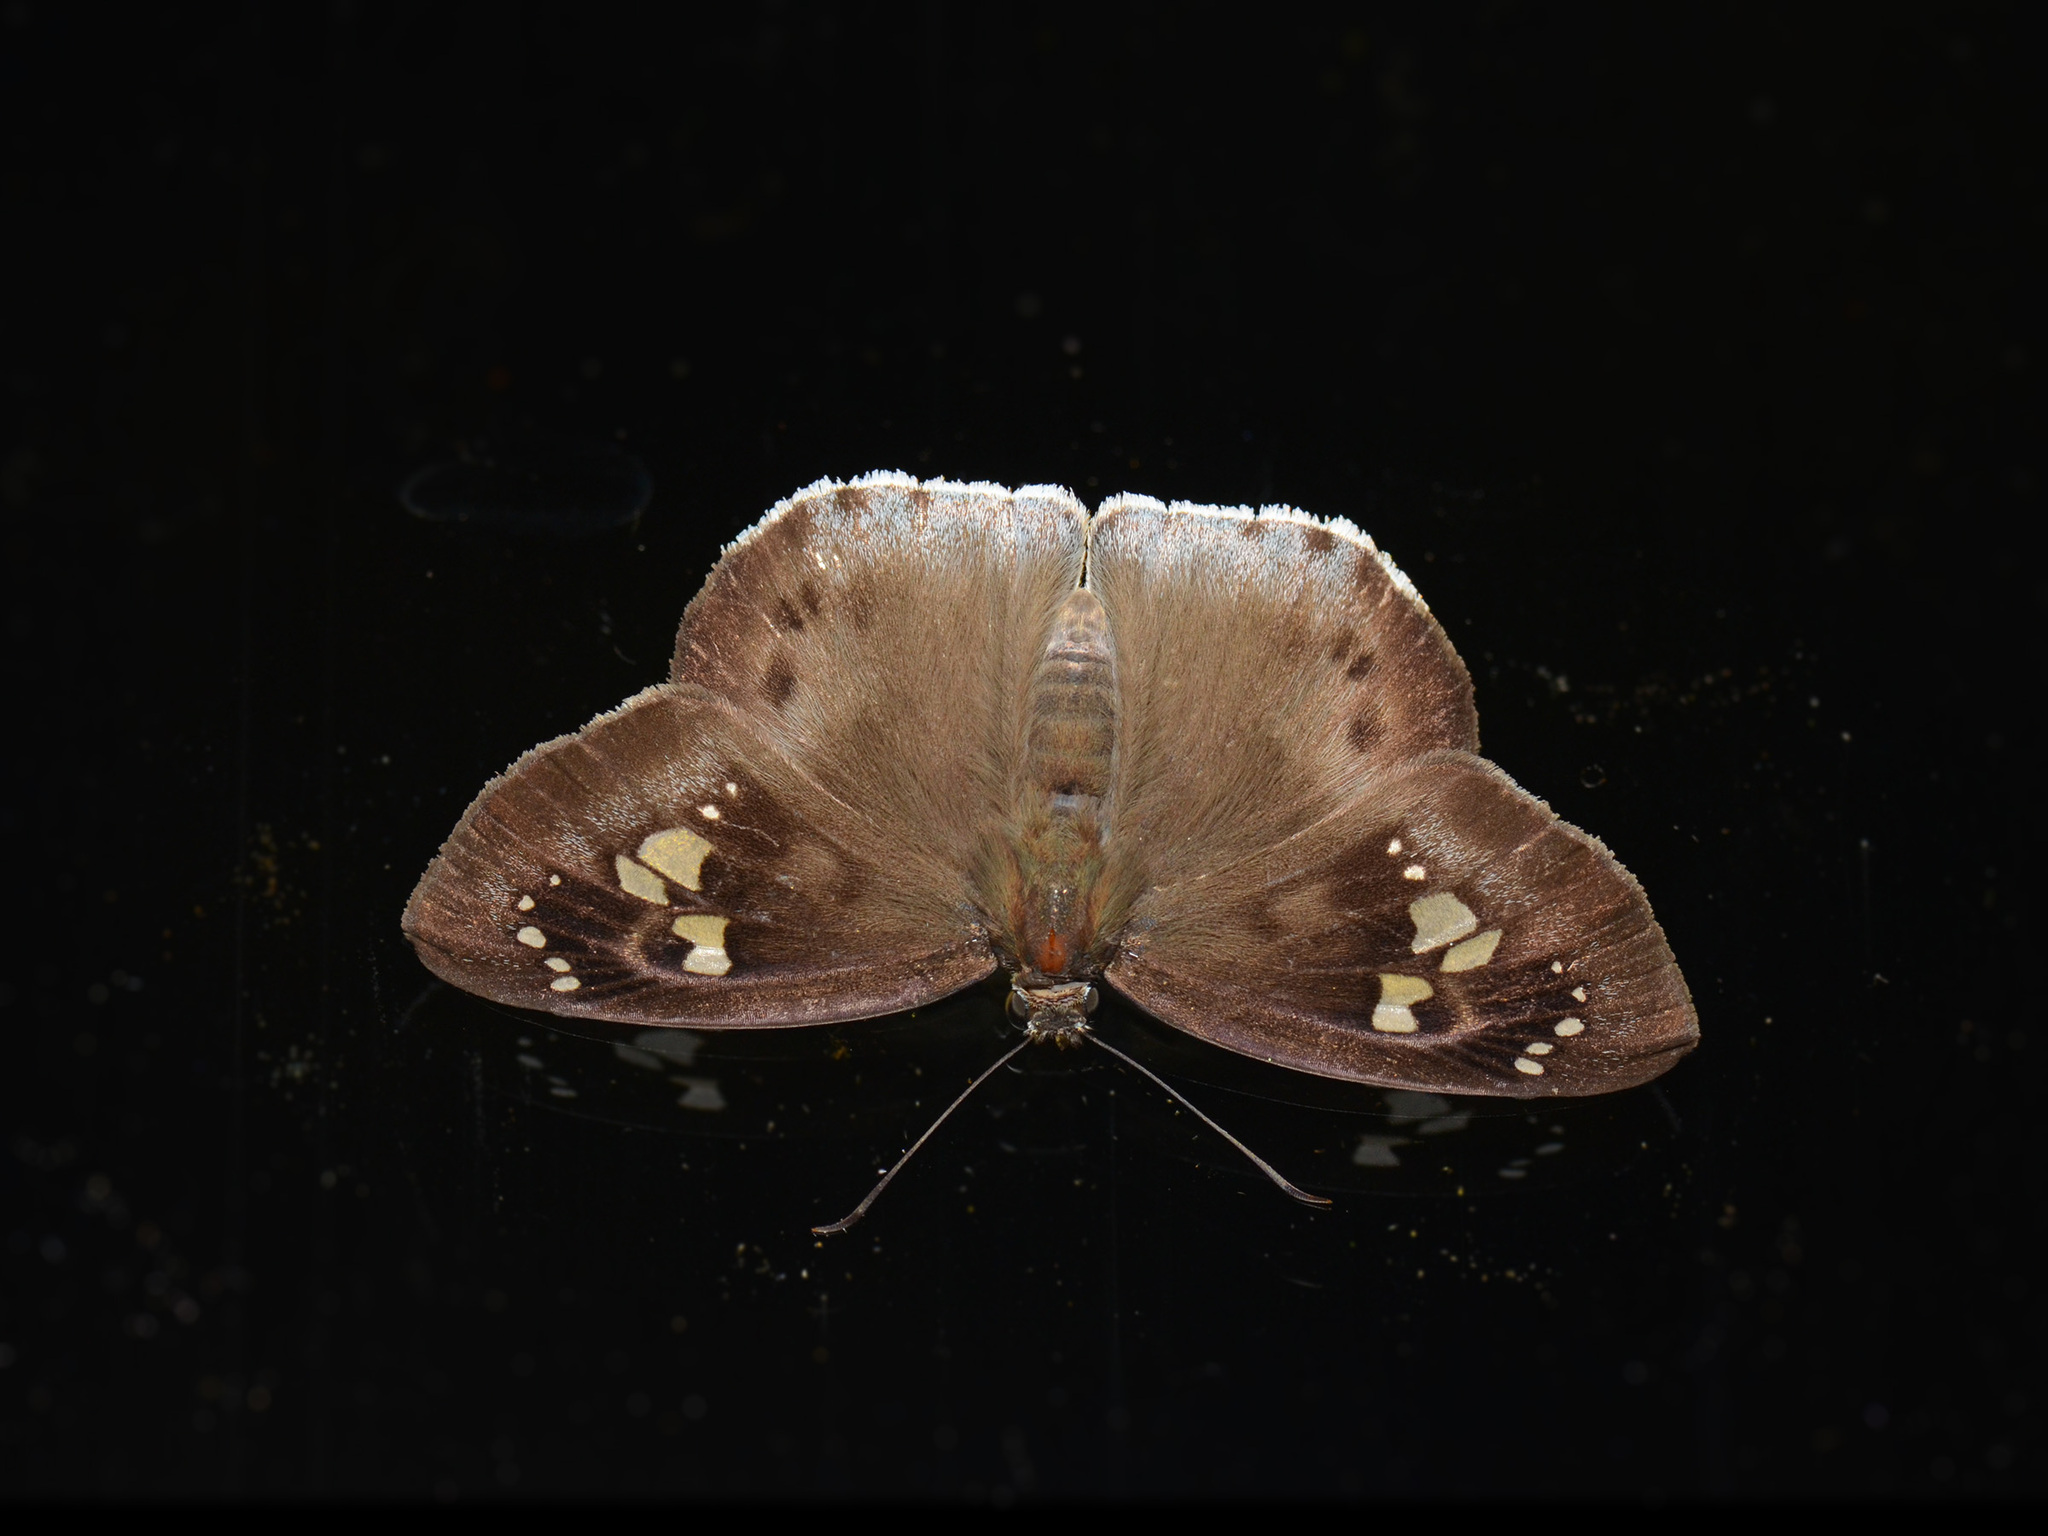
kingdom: Animalia
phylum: Arthropoda
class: Insecta
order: Lepidoptera
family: Hesperiidae
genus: Tagiades
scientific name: Tagiades japetus
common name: Pied flat
